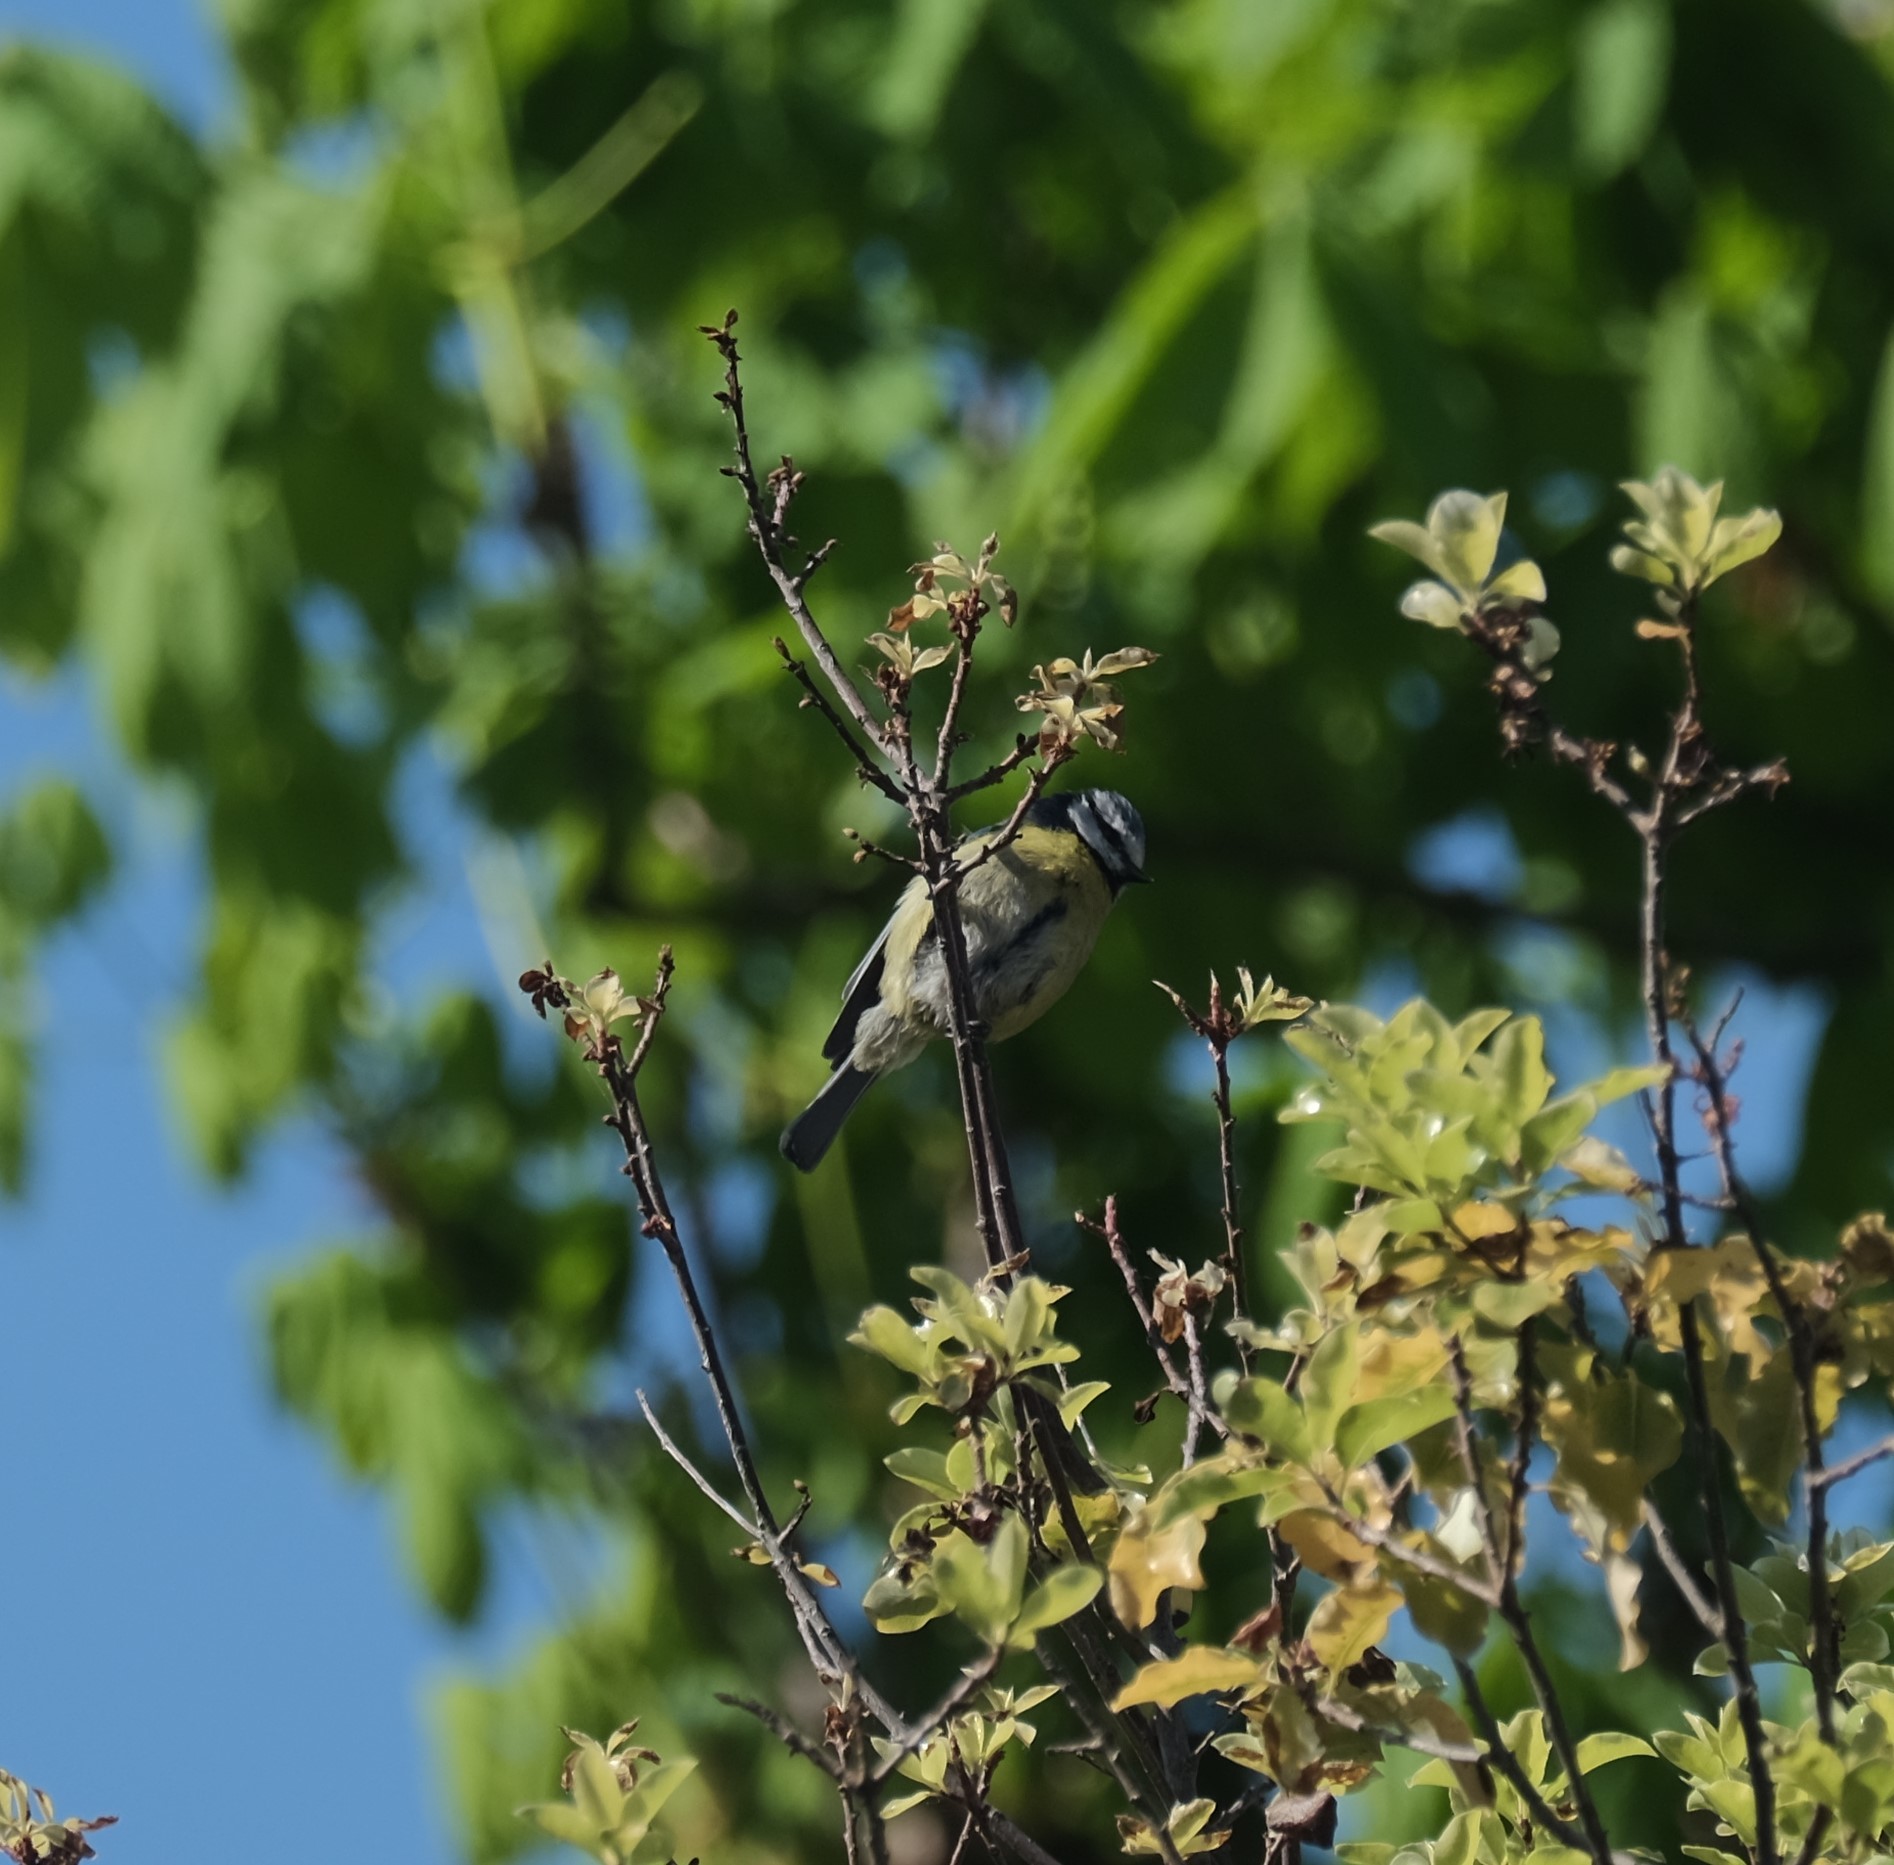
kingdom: Animalia
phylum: Chordata
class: Aves
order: Passeriformes
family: Paridae
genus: Cyanistes
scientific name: Cyanistes caeruleus
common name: Eurasian blue tit
